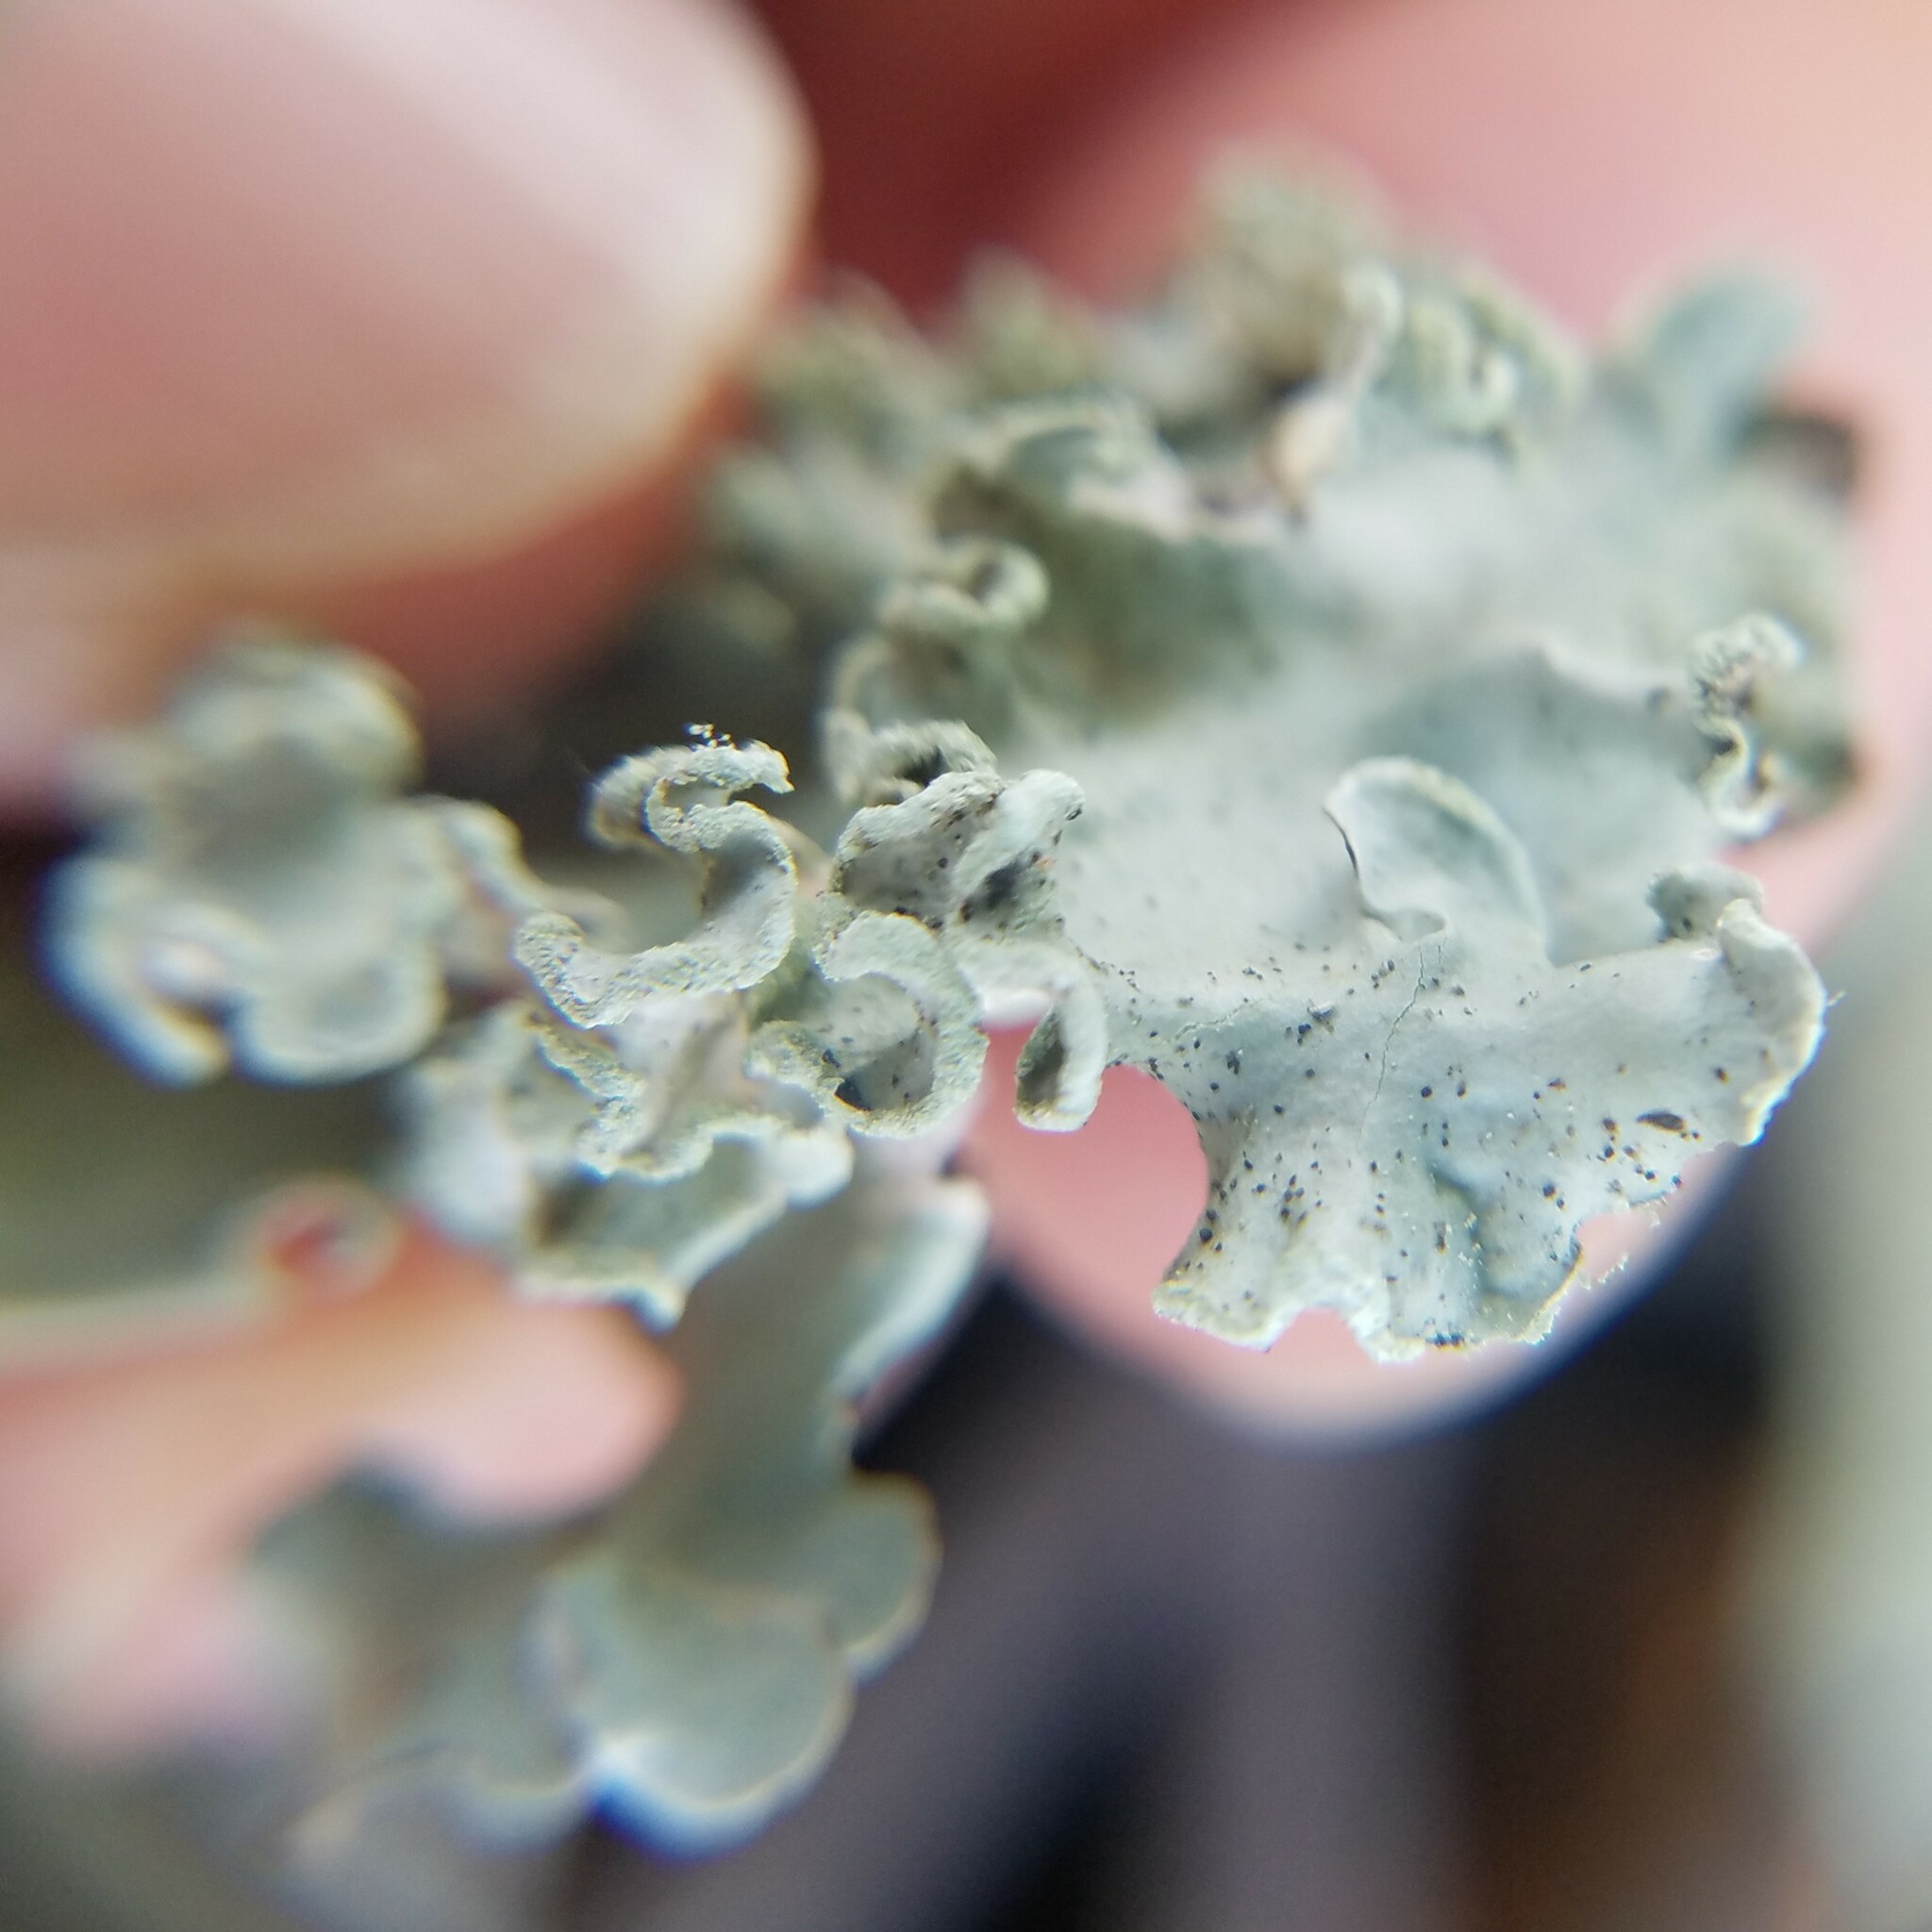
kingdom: Fungi
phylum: Ascomycota
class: Lecanoromycetes
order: Lecanorales
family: Parmeliaceae
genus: Parmotrema
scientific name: Parmotrema austrosinense
